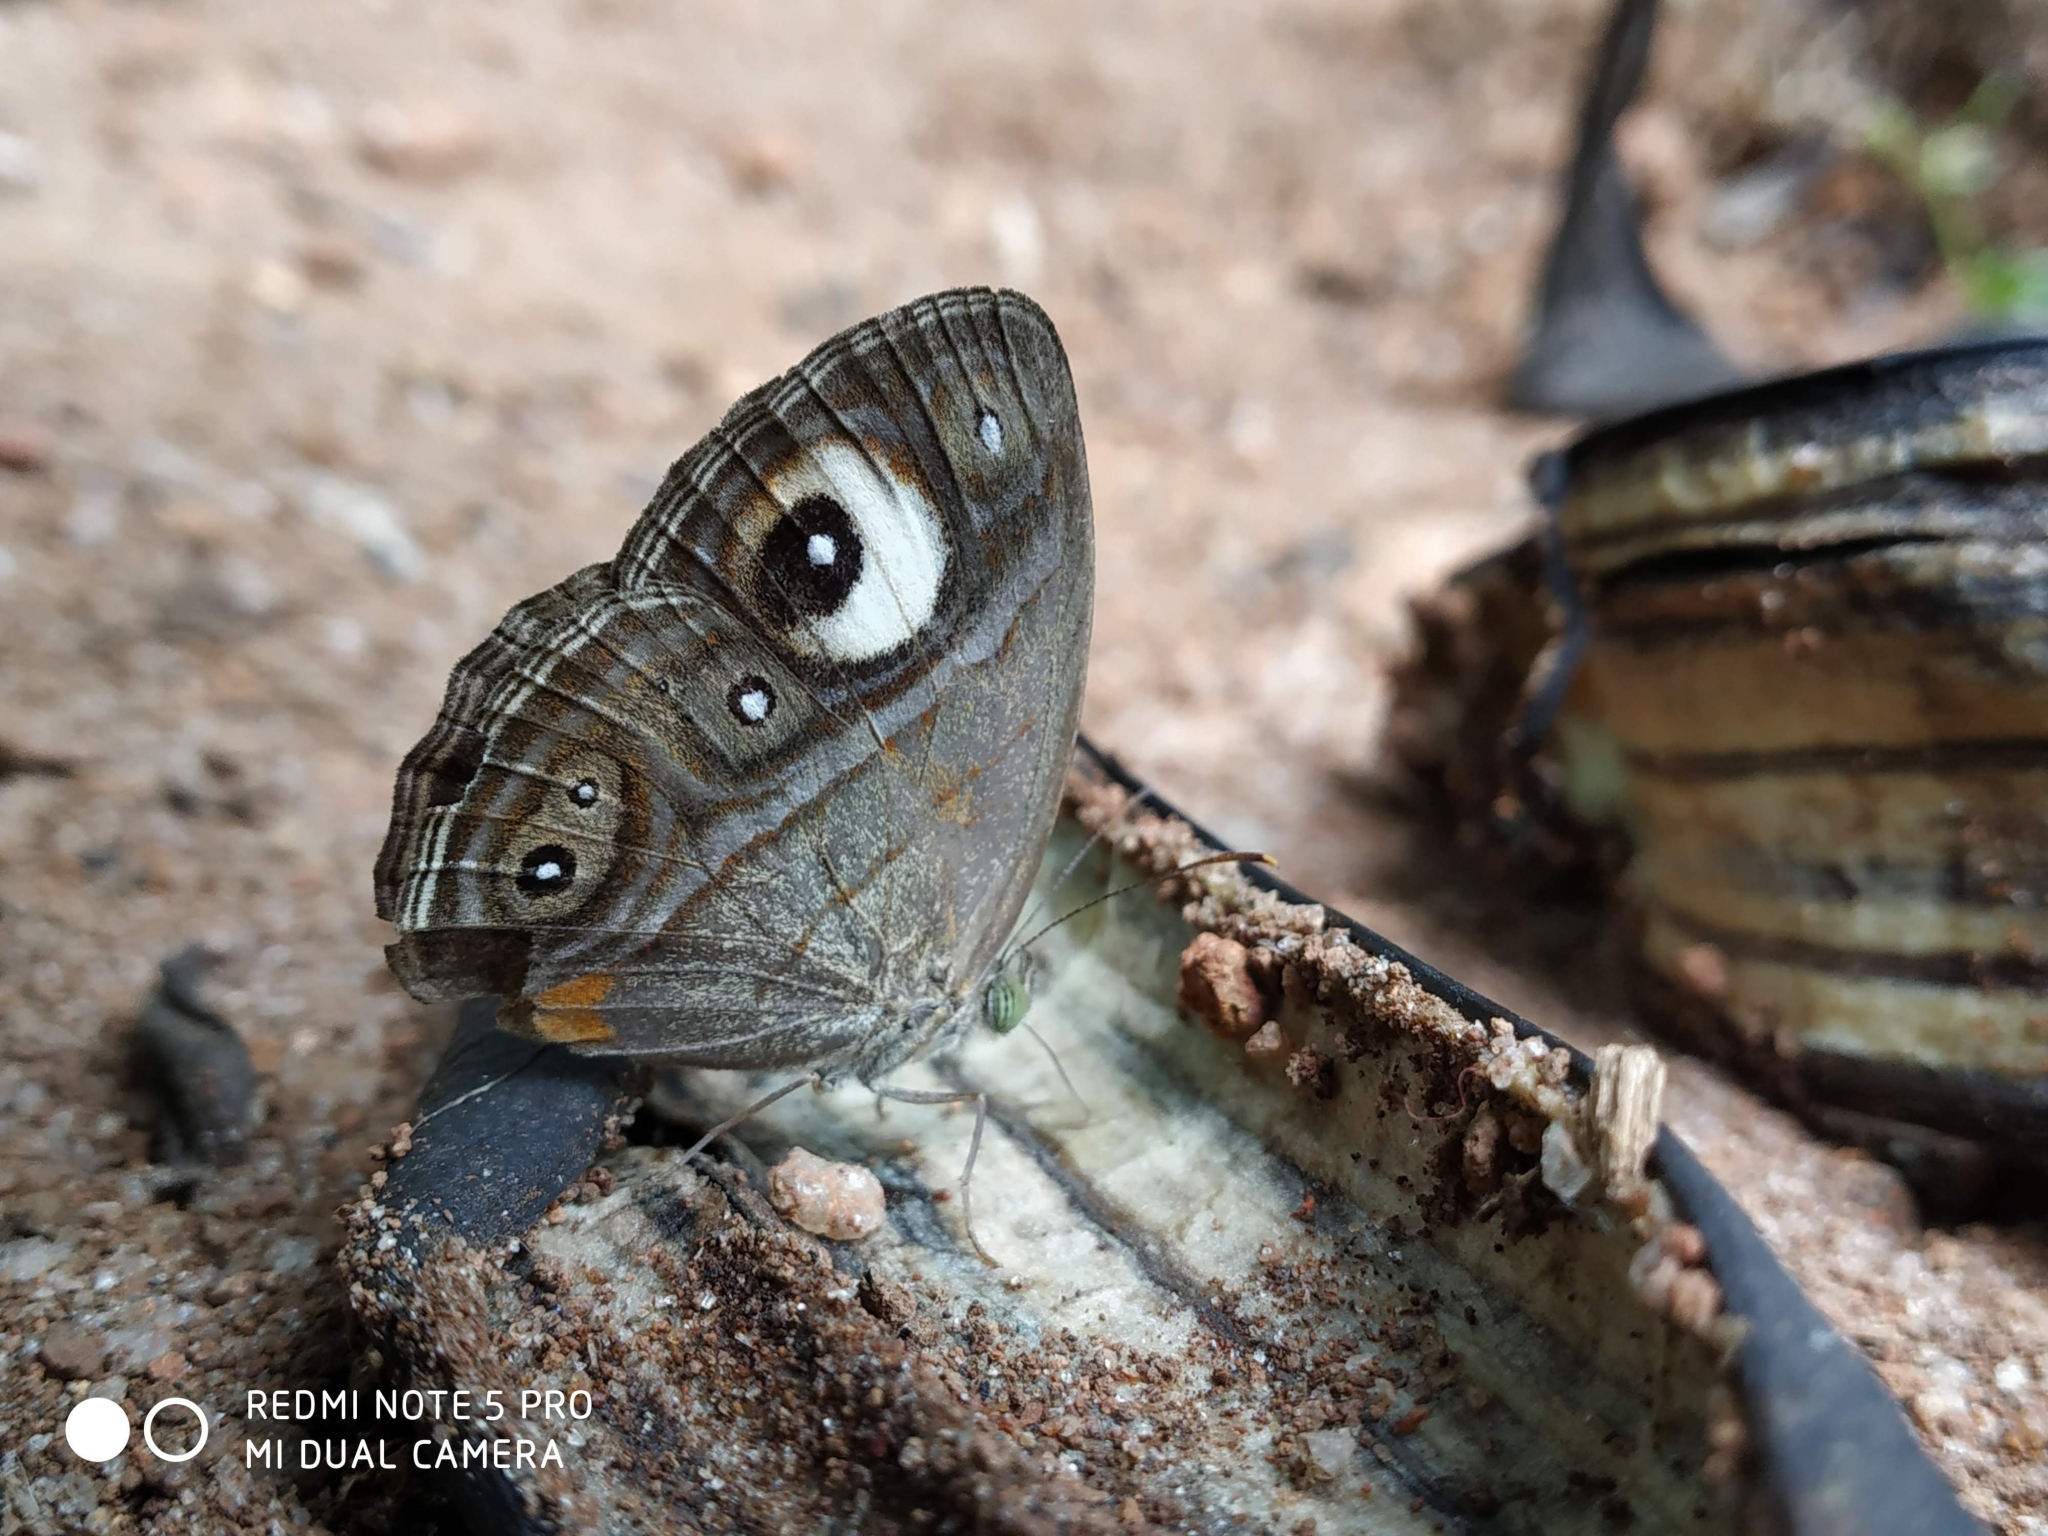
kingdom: Animalia
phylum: Arthropoda
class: Insecta
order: Lepidoptera
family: Nymphalidae
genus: Mycalesis
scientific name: Mycalesis patnia
